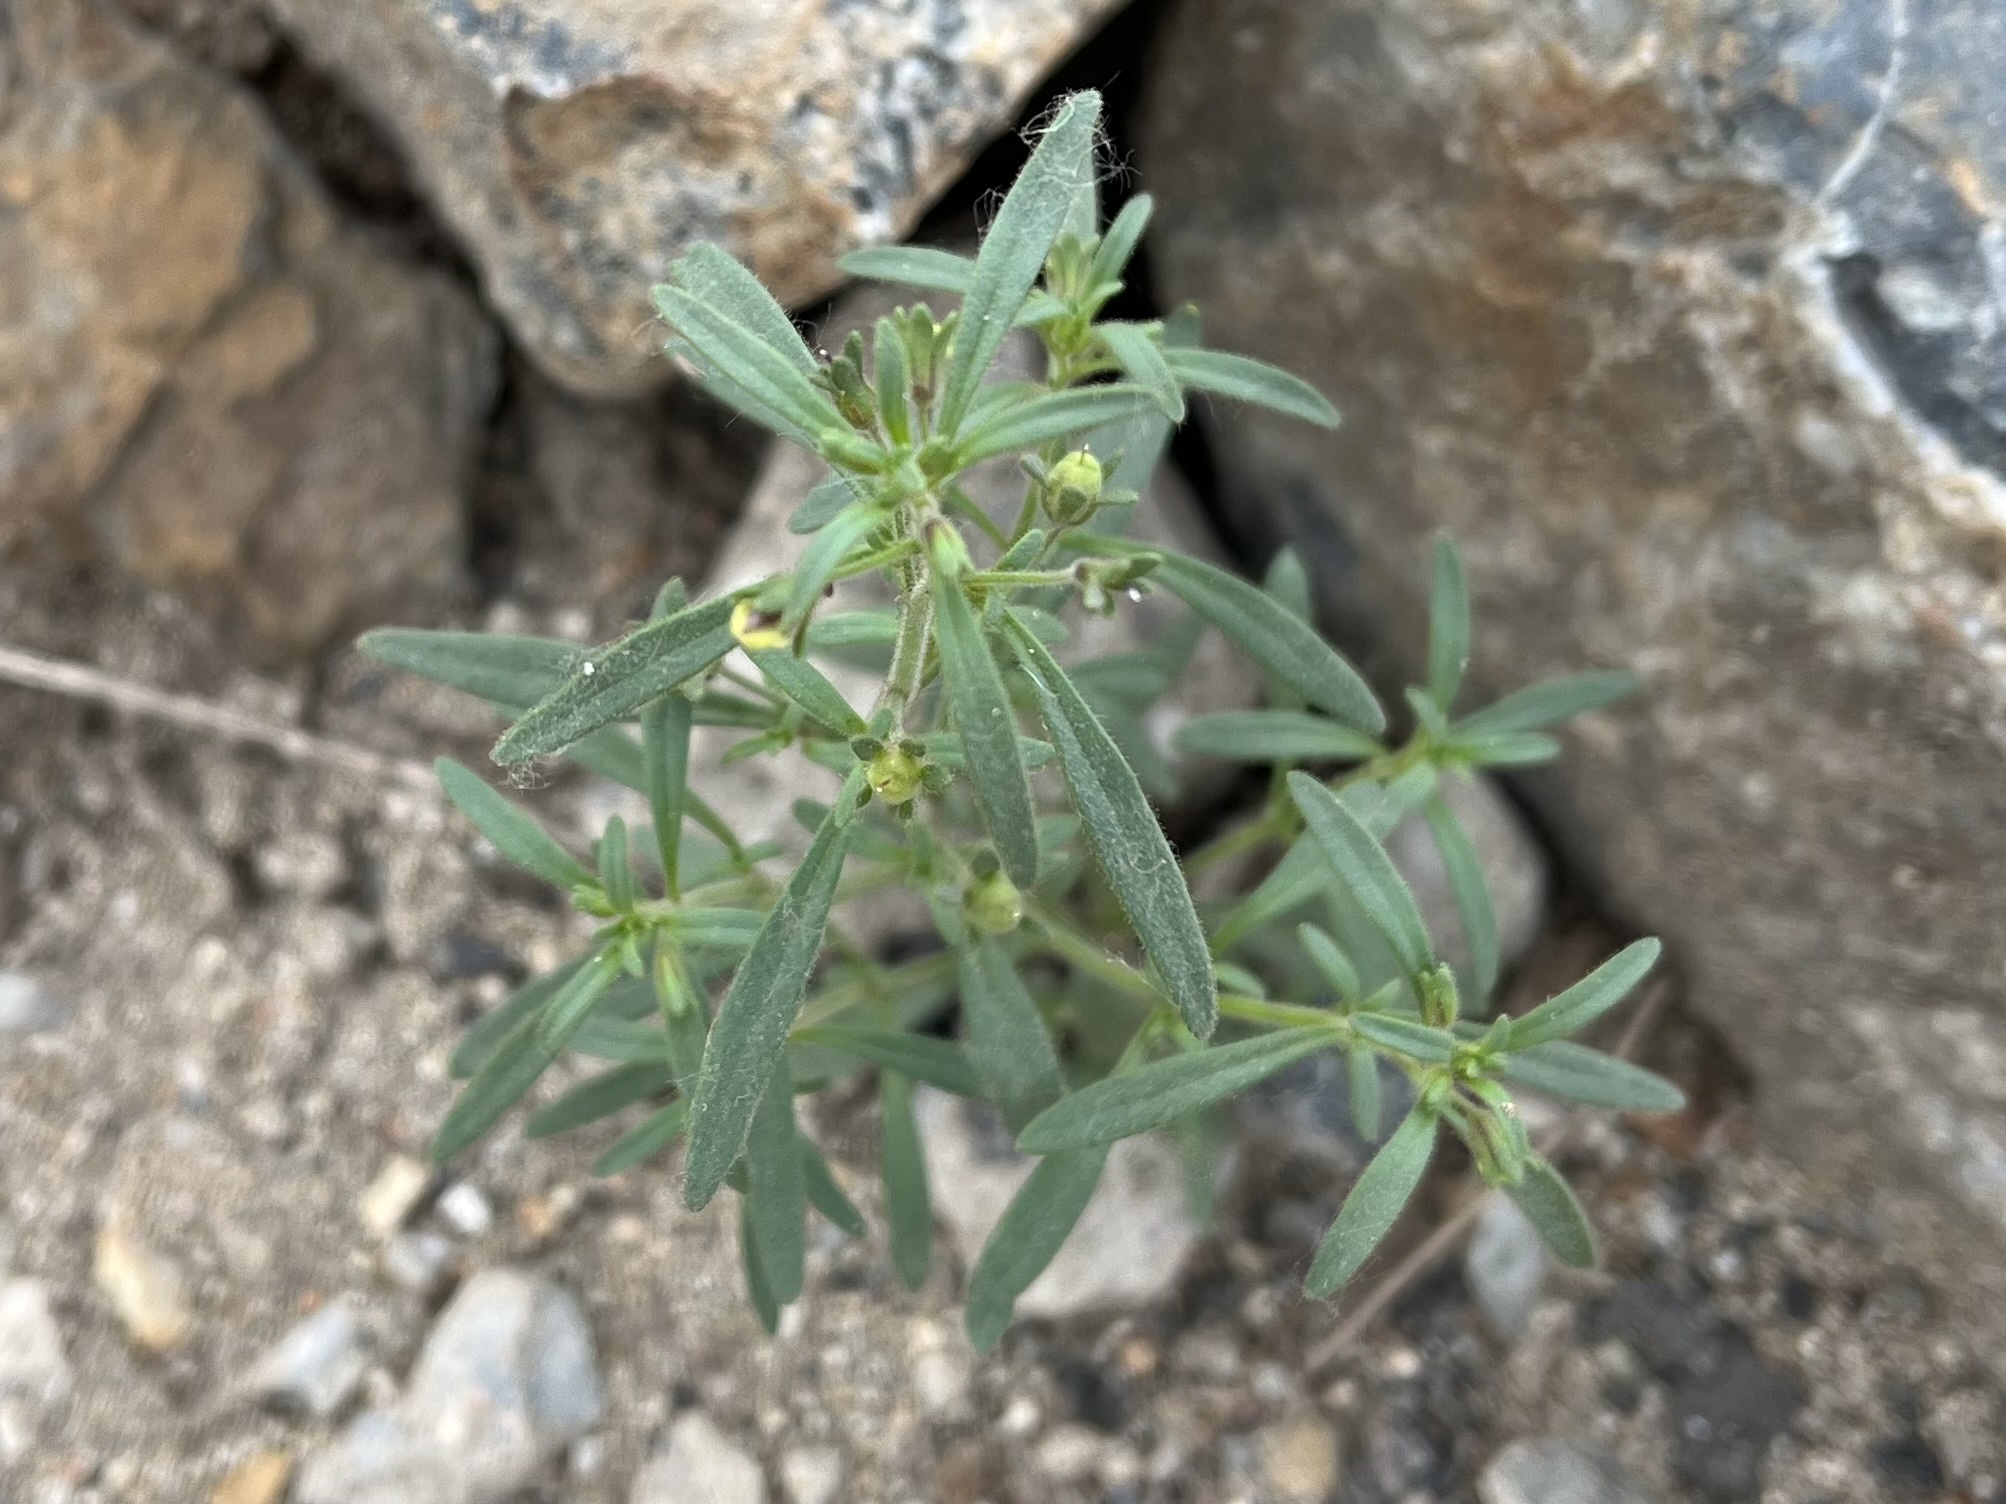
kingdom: Plantae
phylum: Tracheophyta
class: Magnoliopsida
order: Lamiales
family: Plantaginaceae
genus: Chaenorhinum
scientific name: Chaenorhinum minus
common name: Dwarf snapdragon
